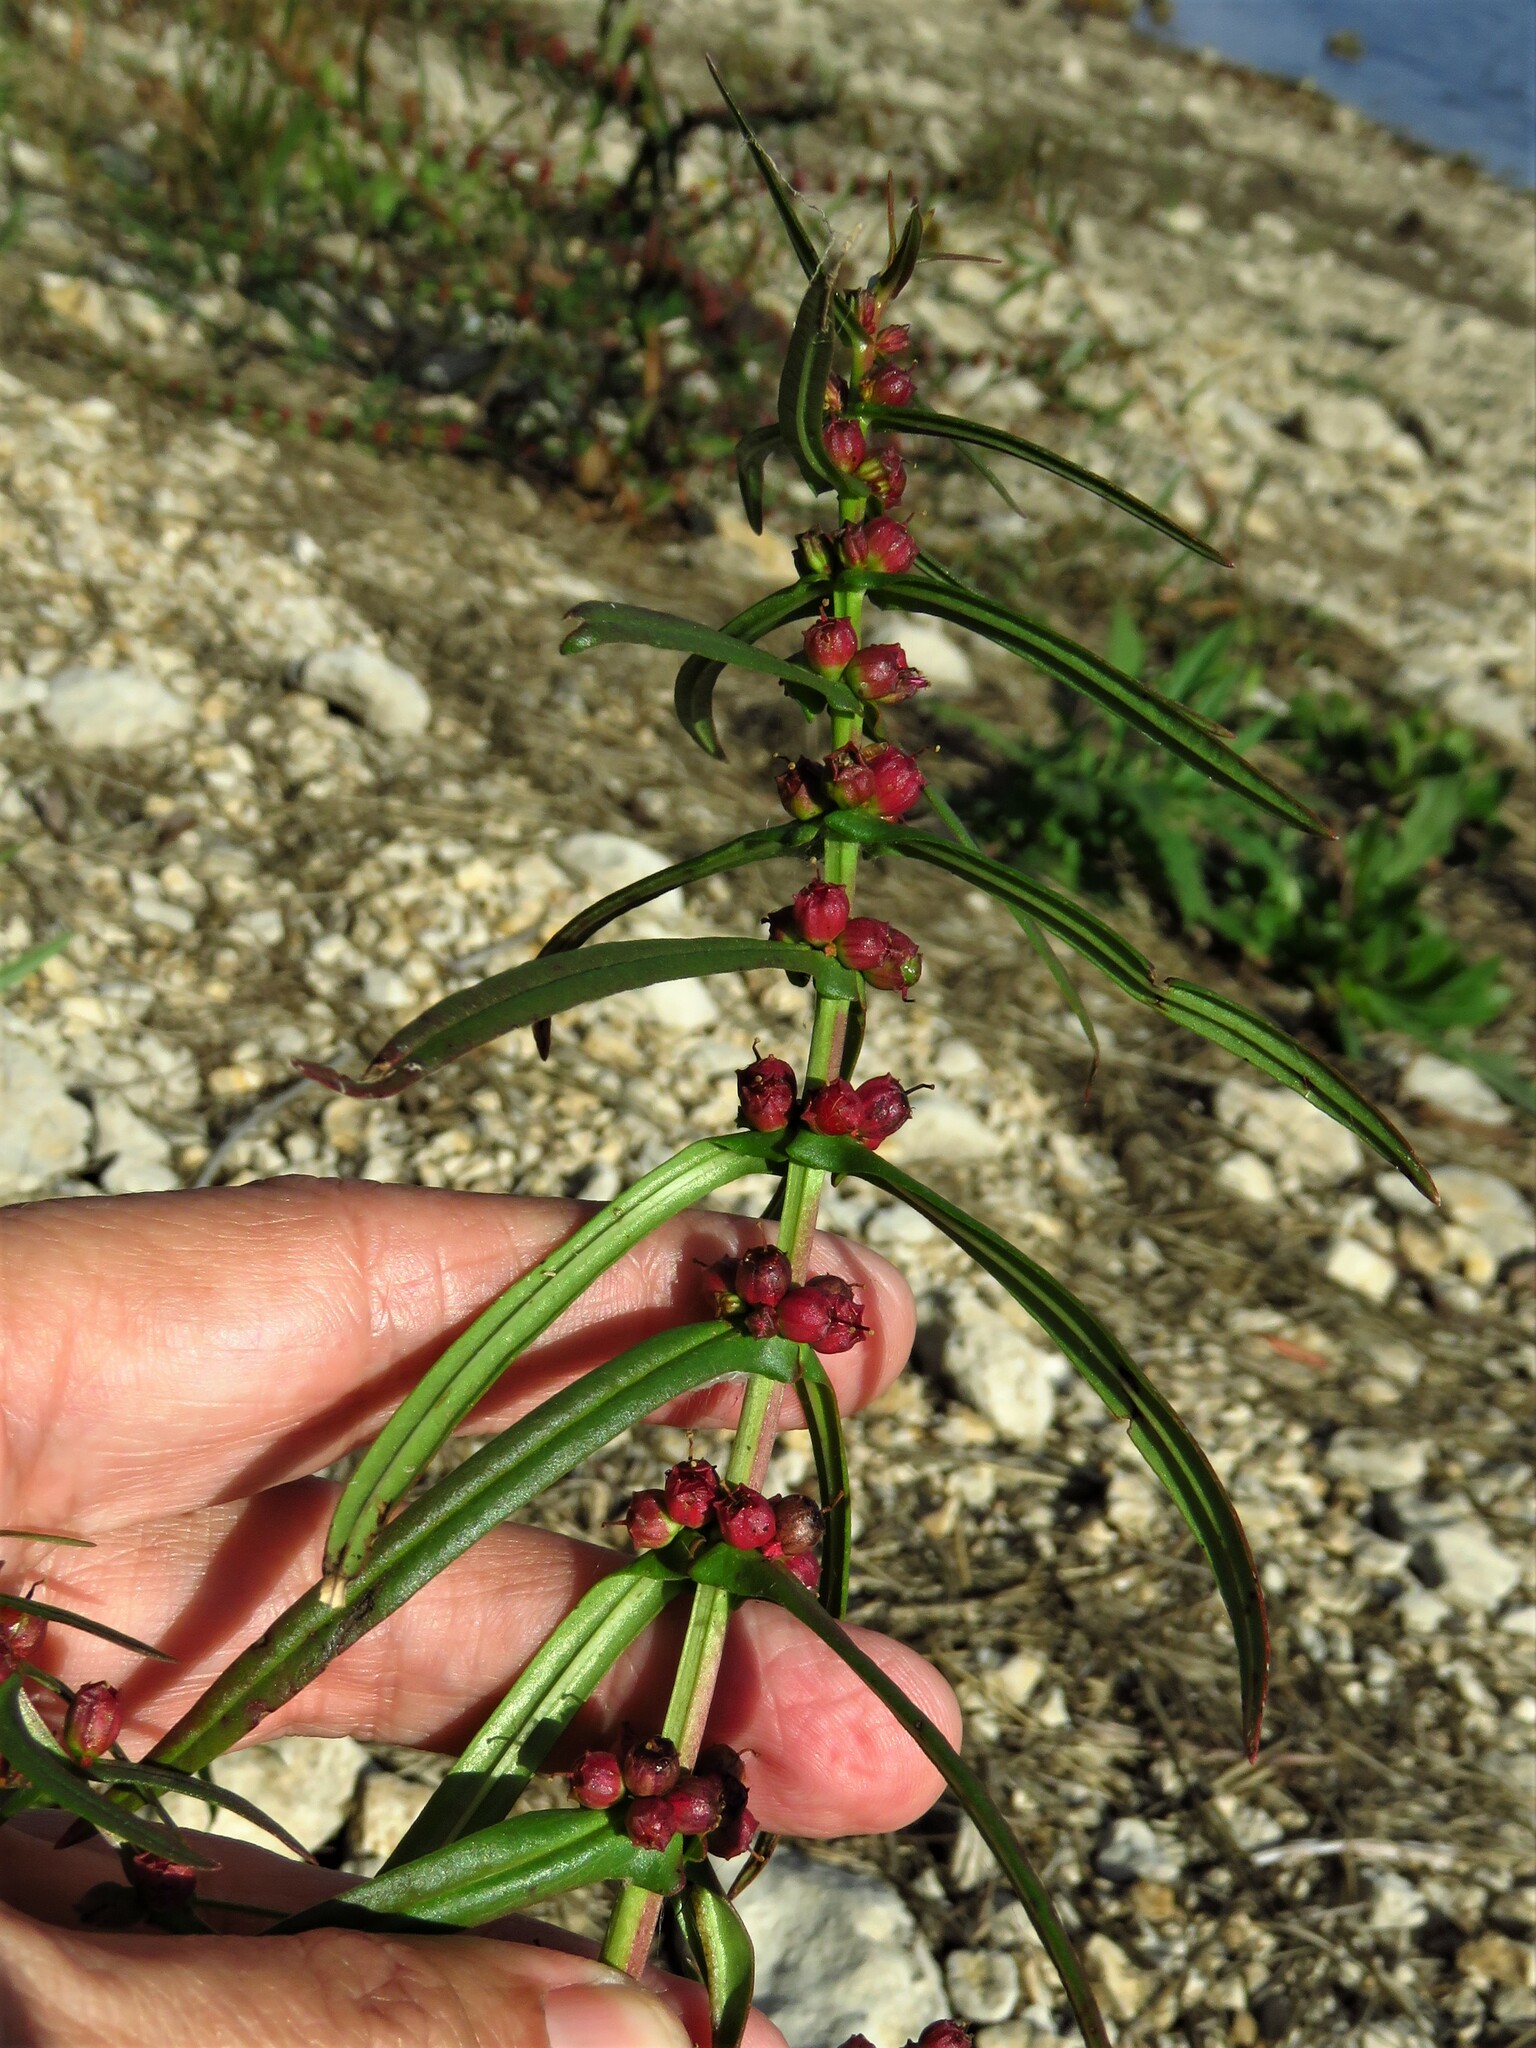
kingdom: Plantae
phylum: Tracheophyta
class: Magnoliopsida
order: Myrtales
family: Lythraceae
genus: Ammannia
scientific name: Ammannia coccinea
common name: Valley redstem
